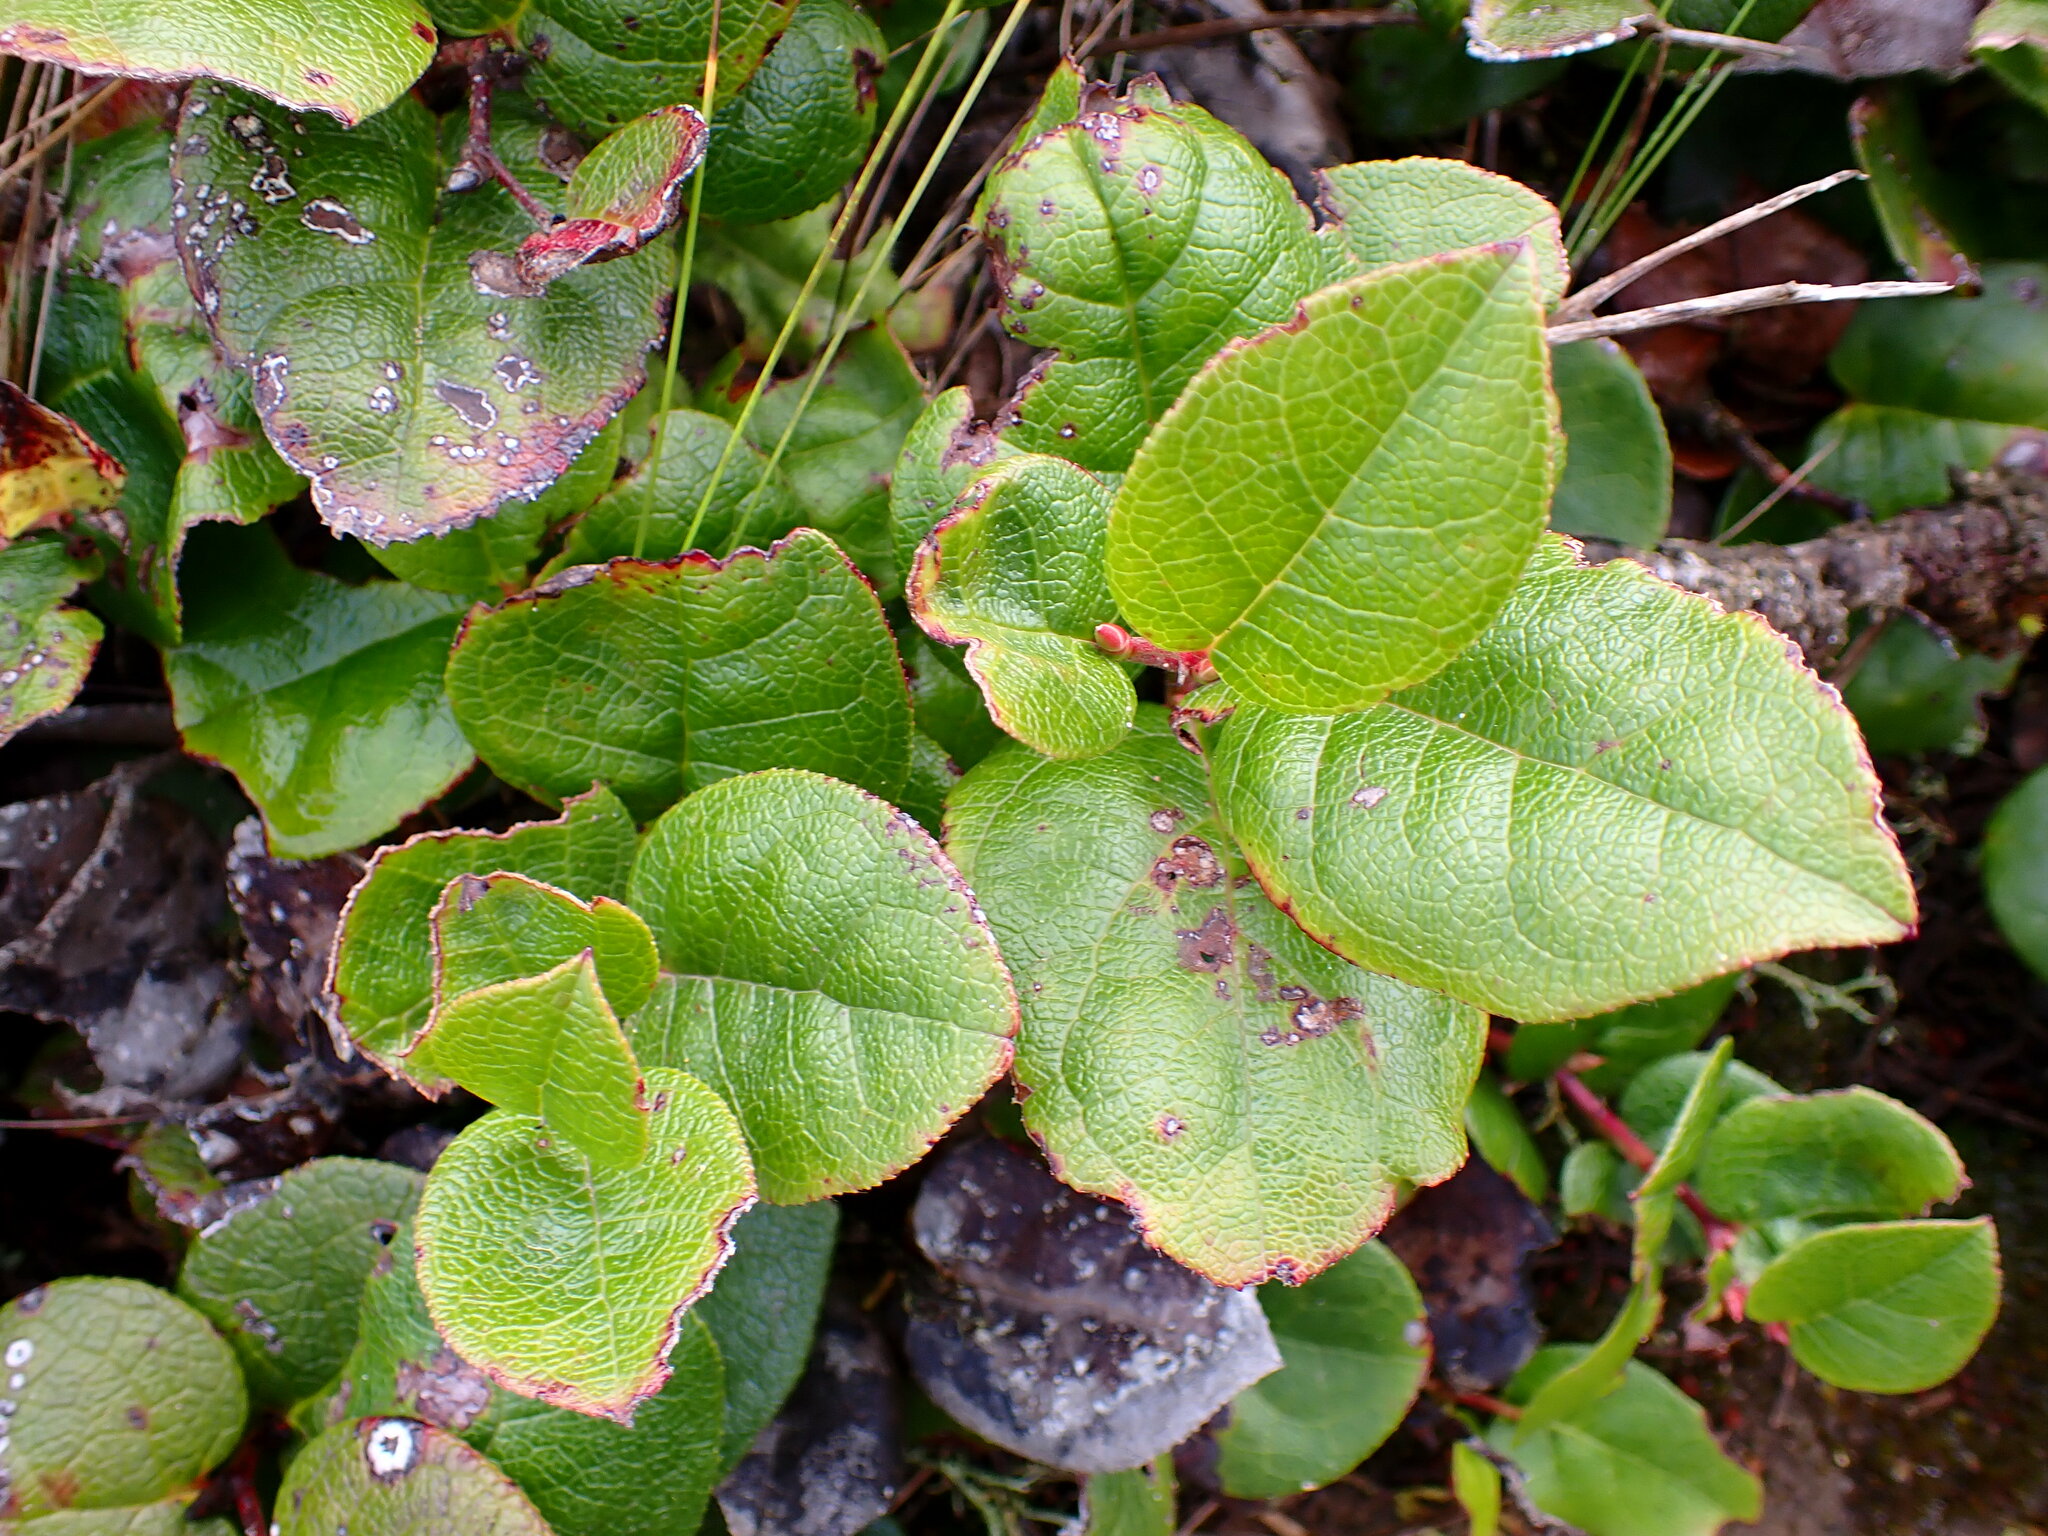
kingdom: Plantae
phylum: Tracheophyta
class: Magnoliopsida
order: Ericales
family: Ericaceae
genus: Gaultheria
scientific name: Gaultheria shallon
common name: Shallon
